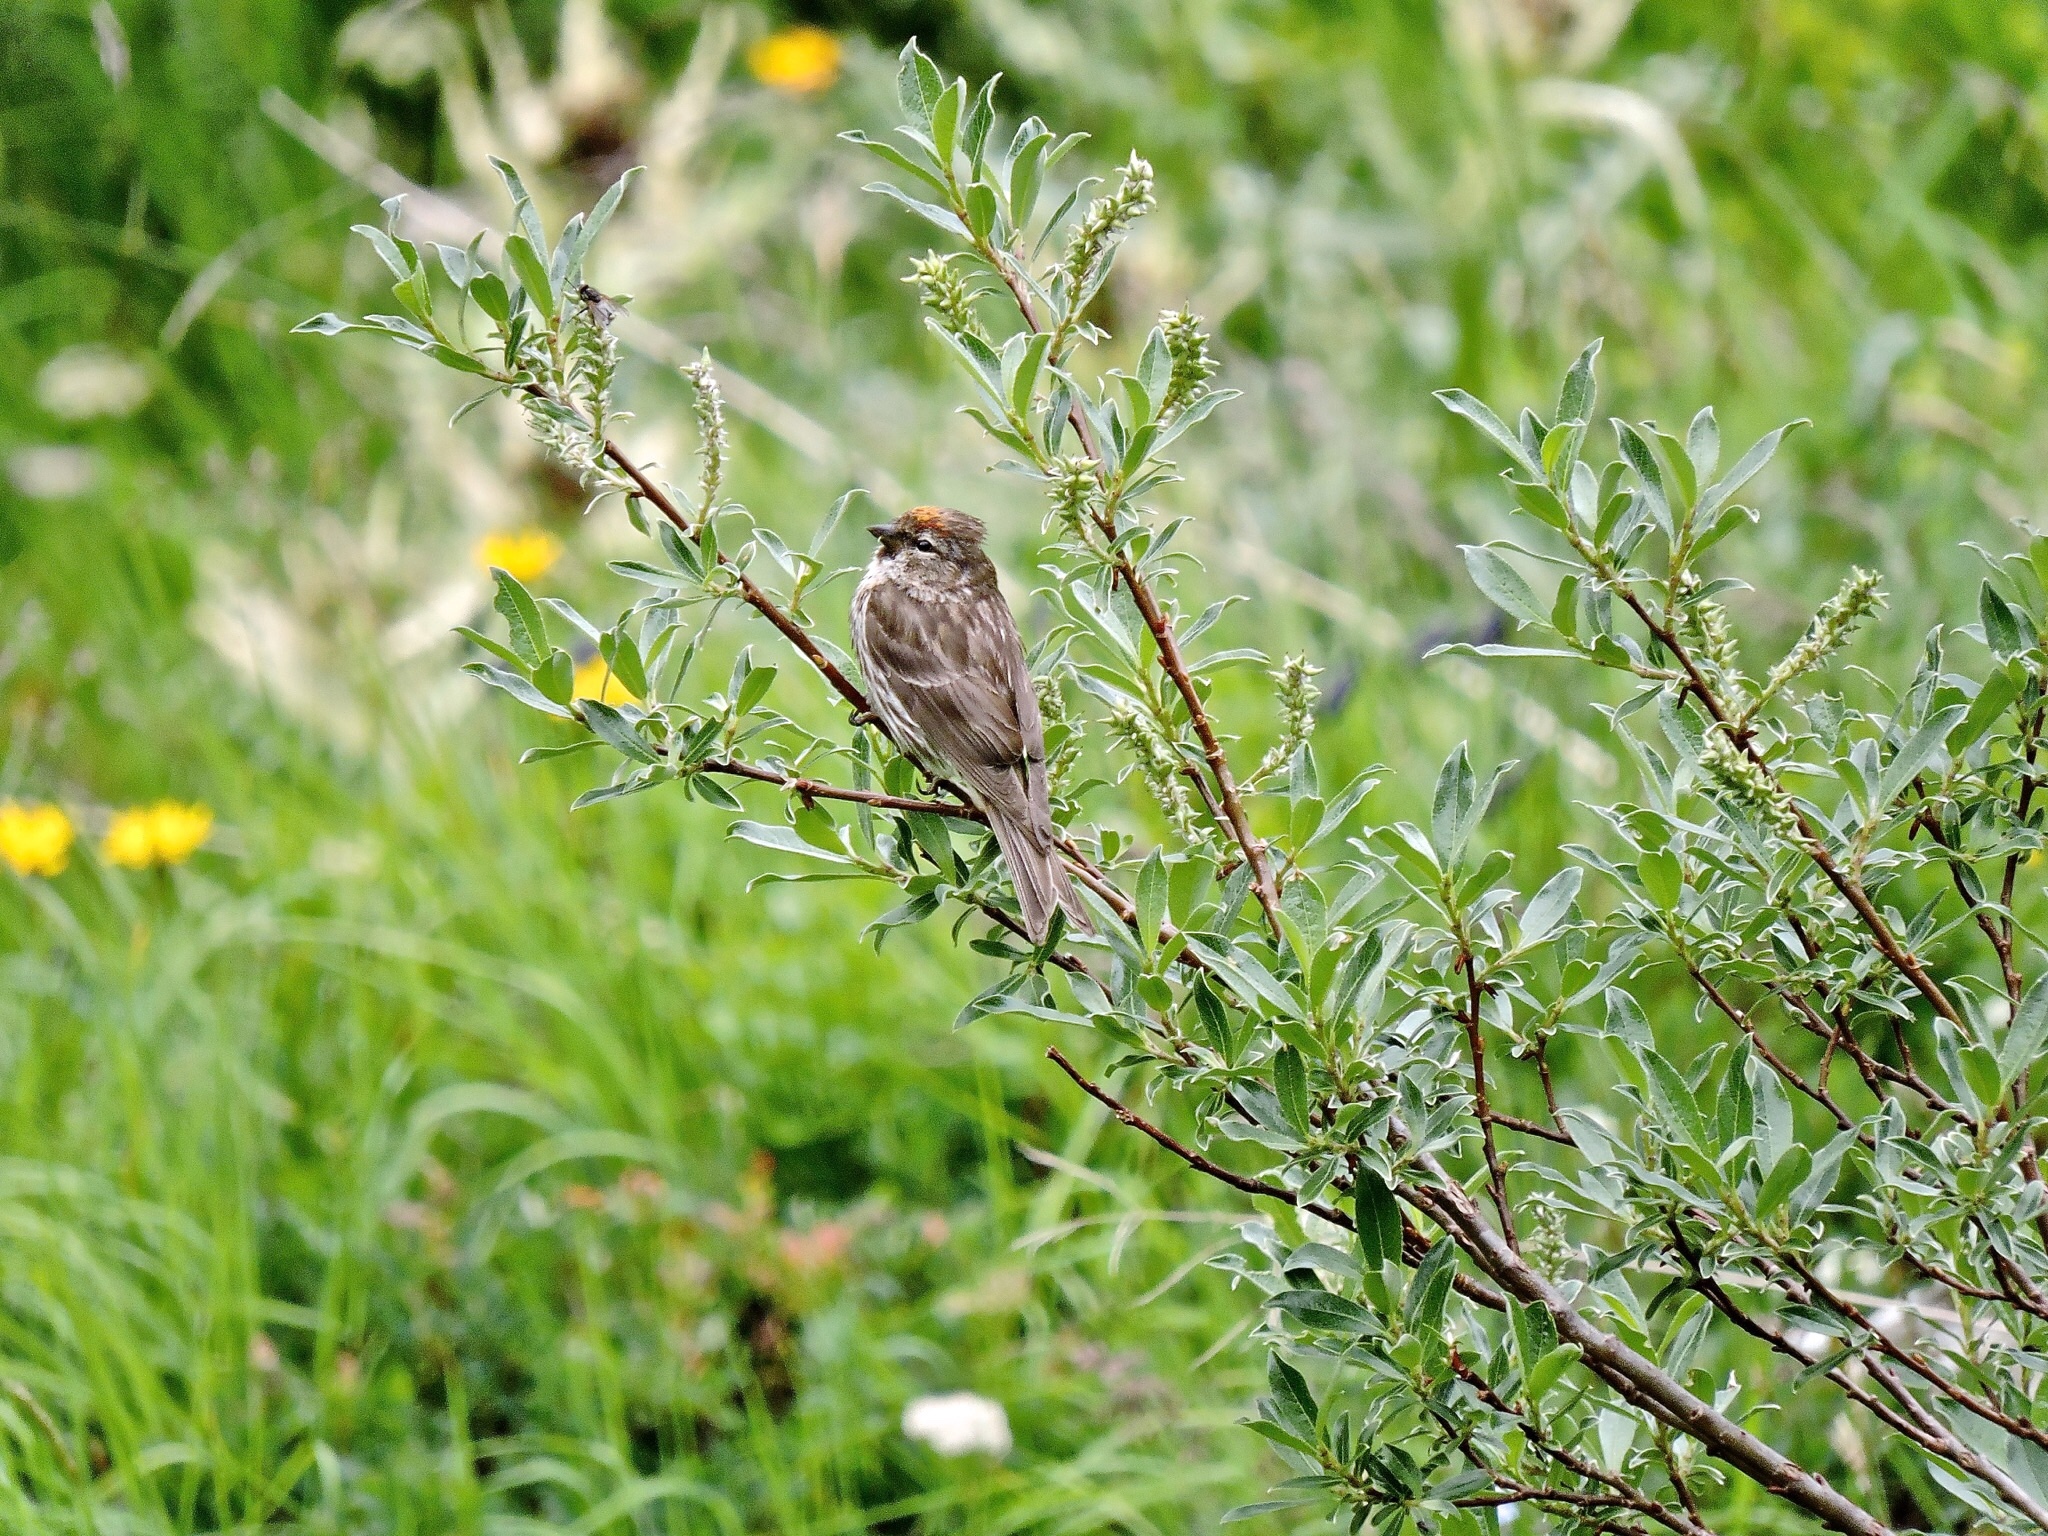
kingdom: Animalia
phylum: Chordata
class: Aves
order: Passeriformes
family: Fringillidae
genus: Acanthis
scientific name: Acanthis flammea
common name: Common redpoll
